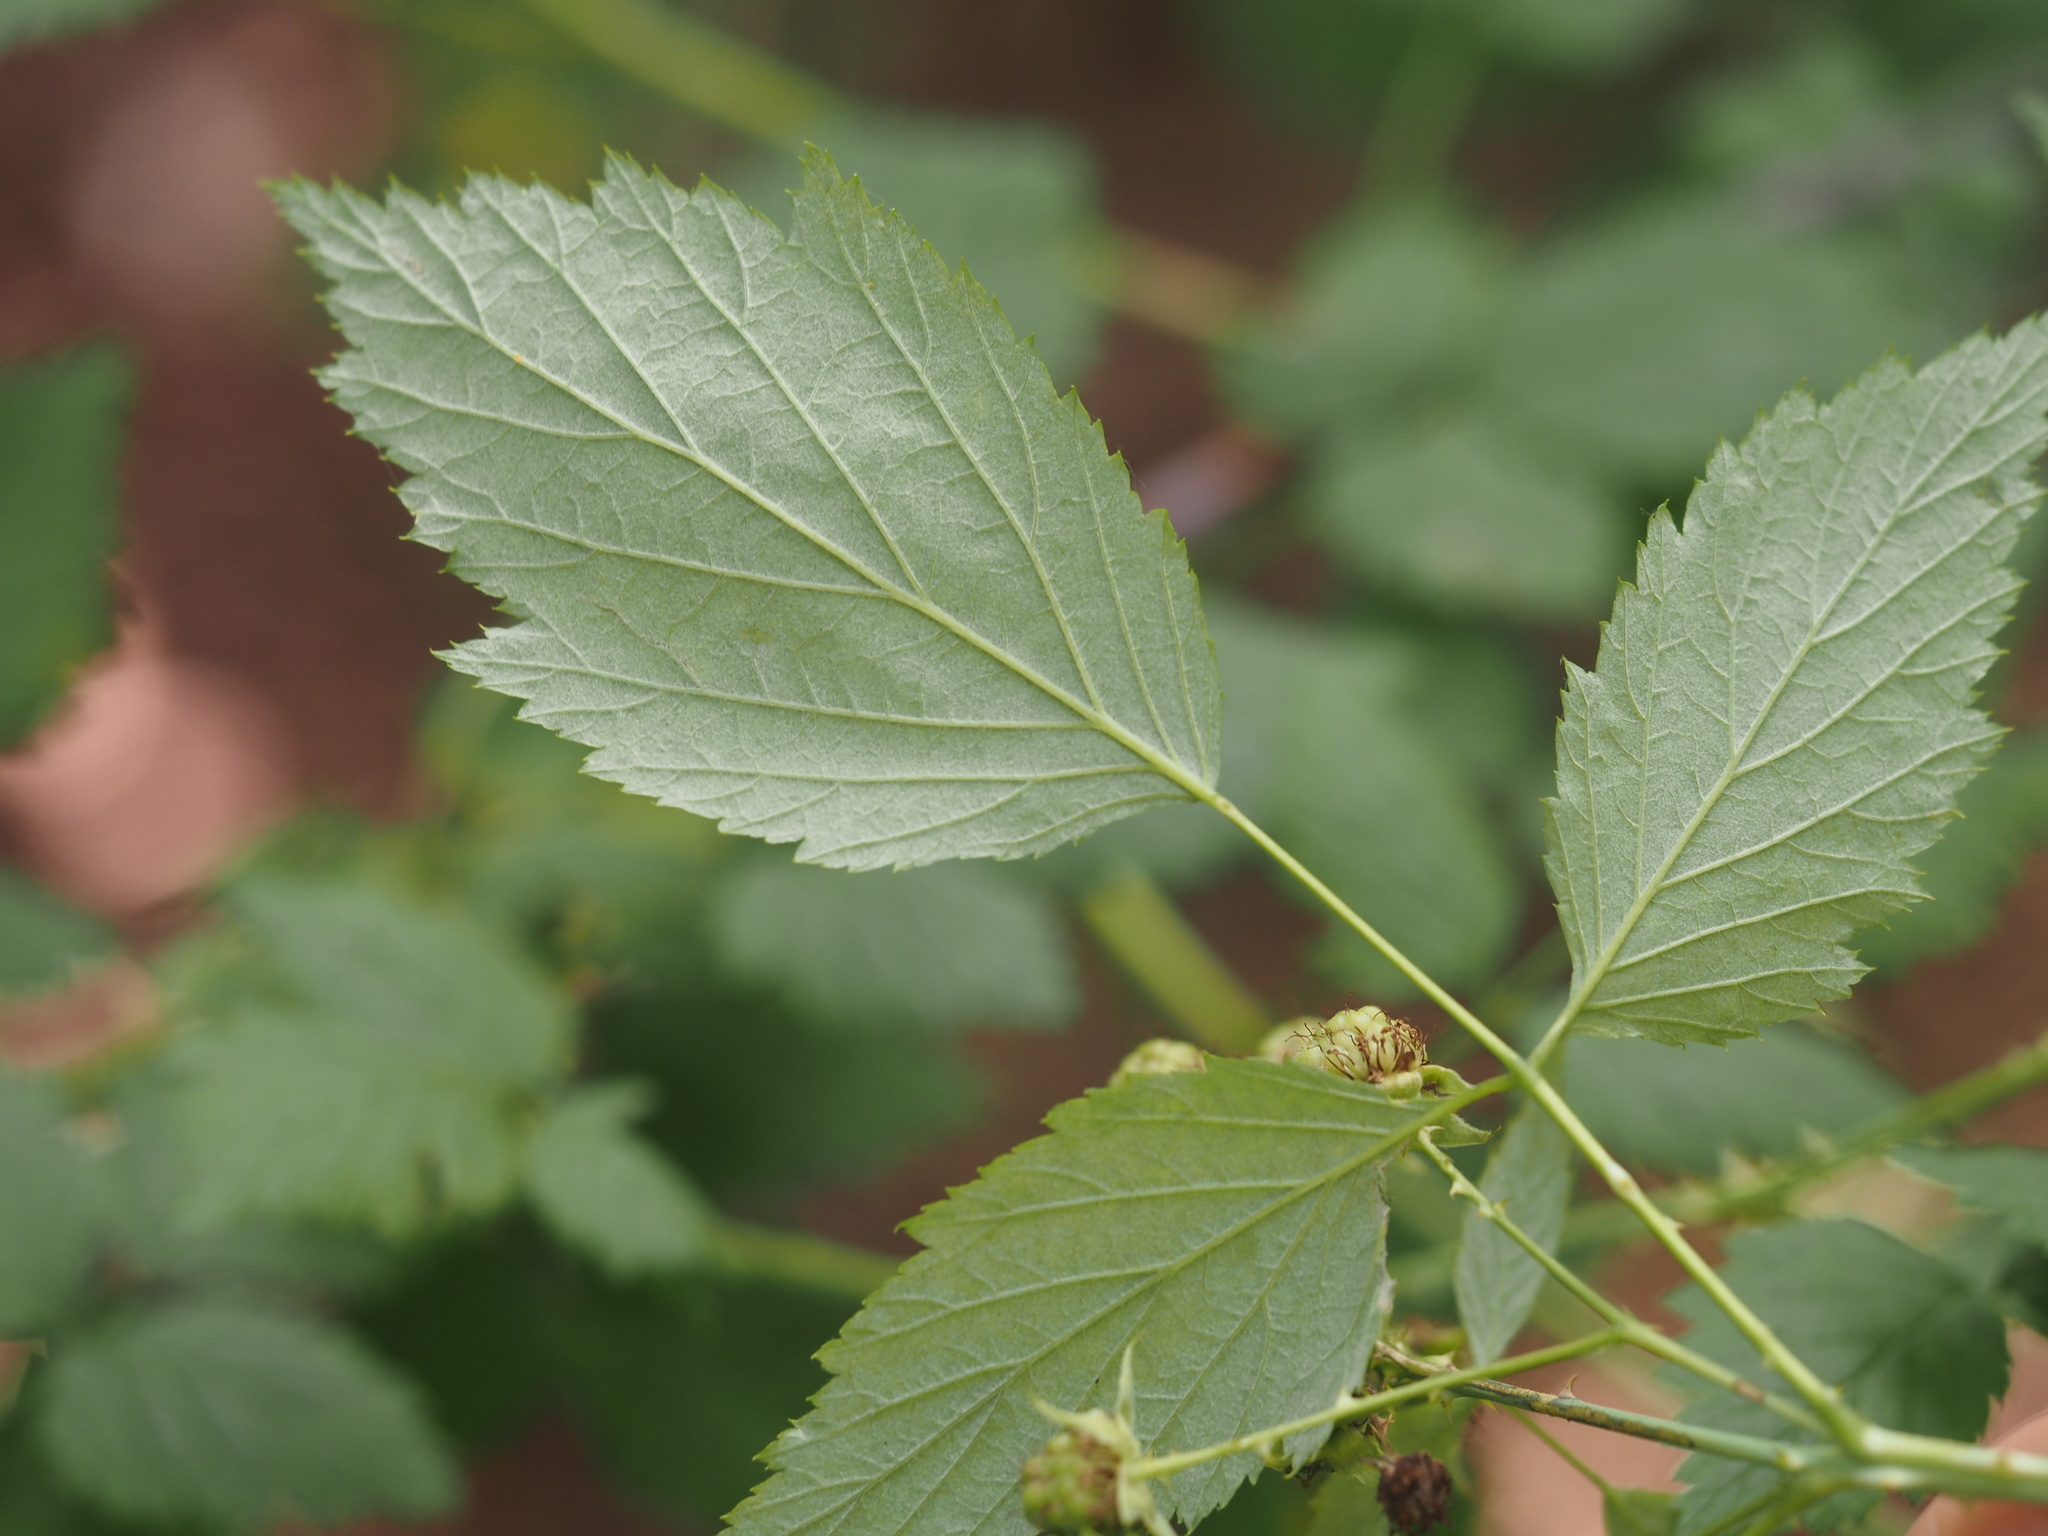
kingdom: Plantae
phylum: Tracheophyta
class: Magnoliopsida
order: Rosales
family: Rosaceae
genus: Rubus
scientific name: Rubus leucodermis
